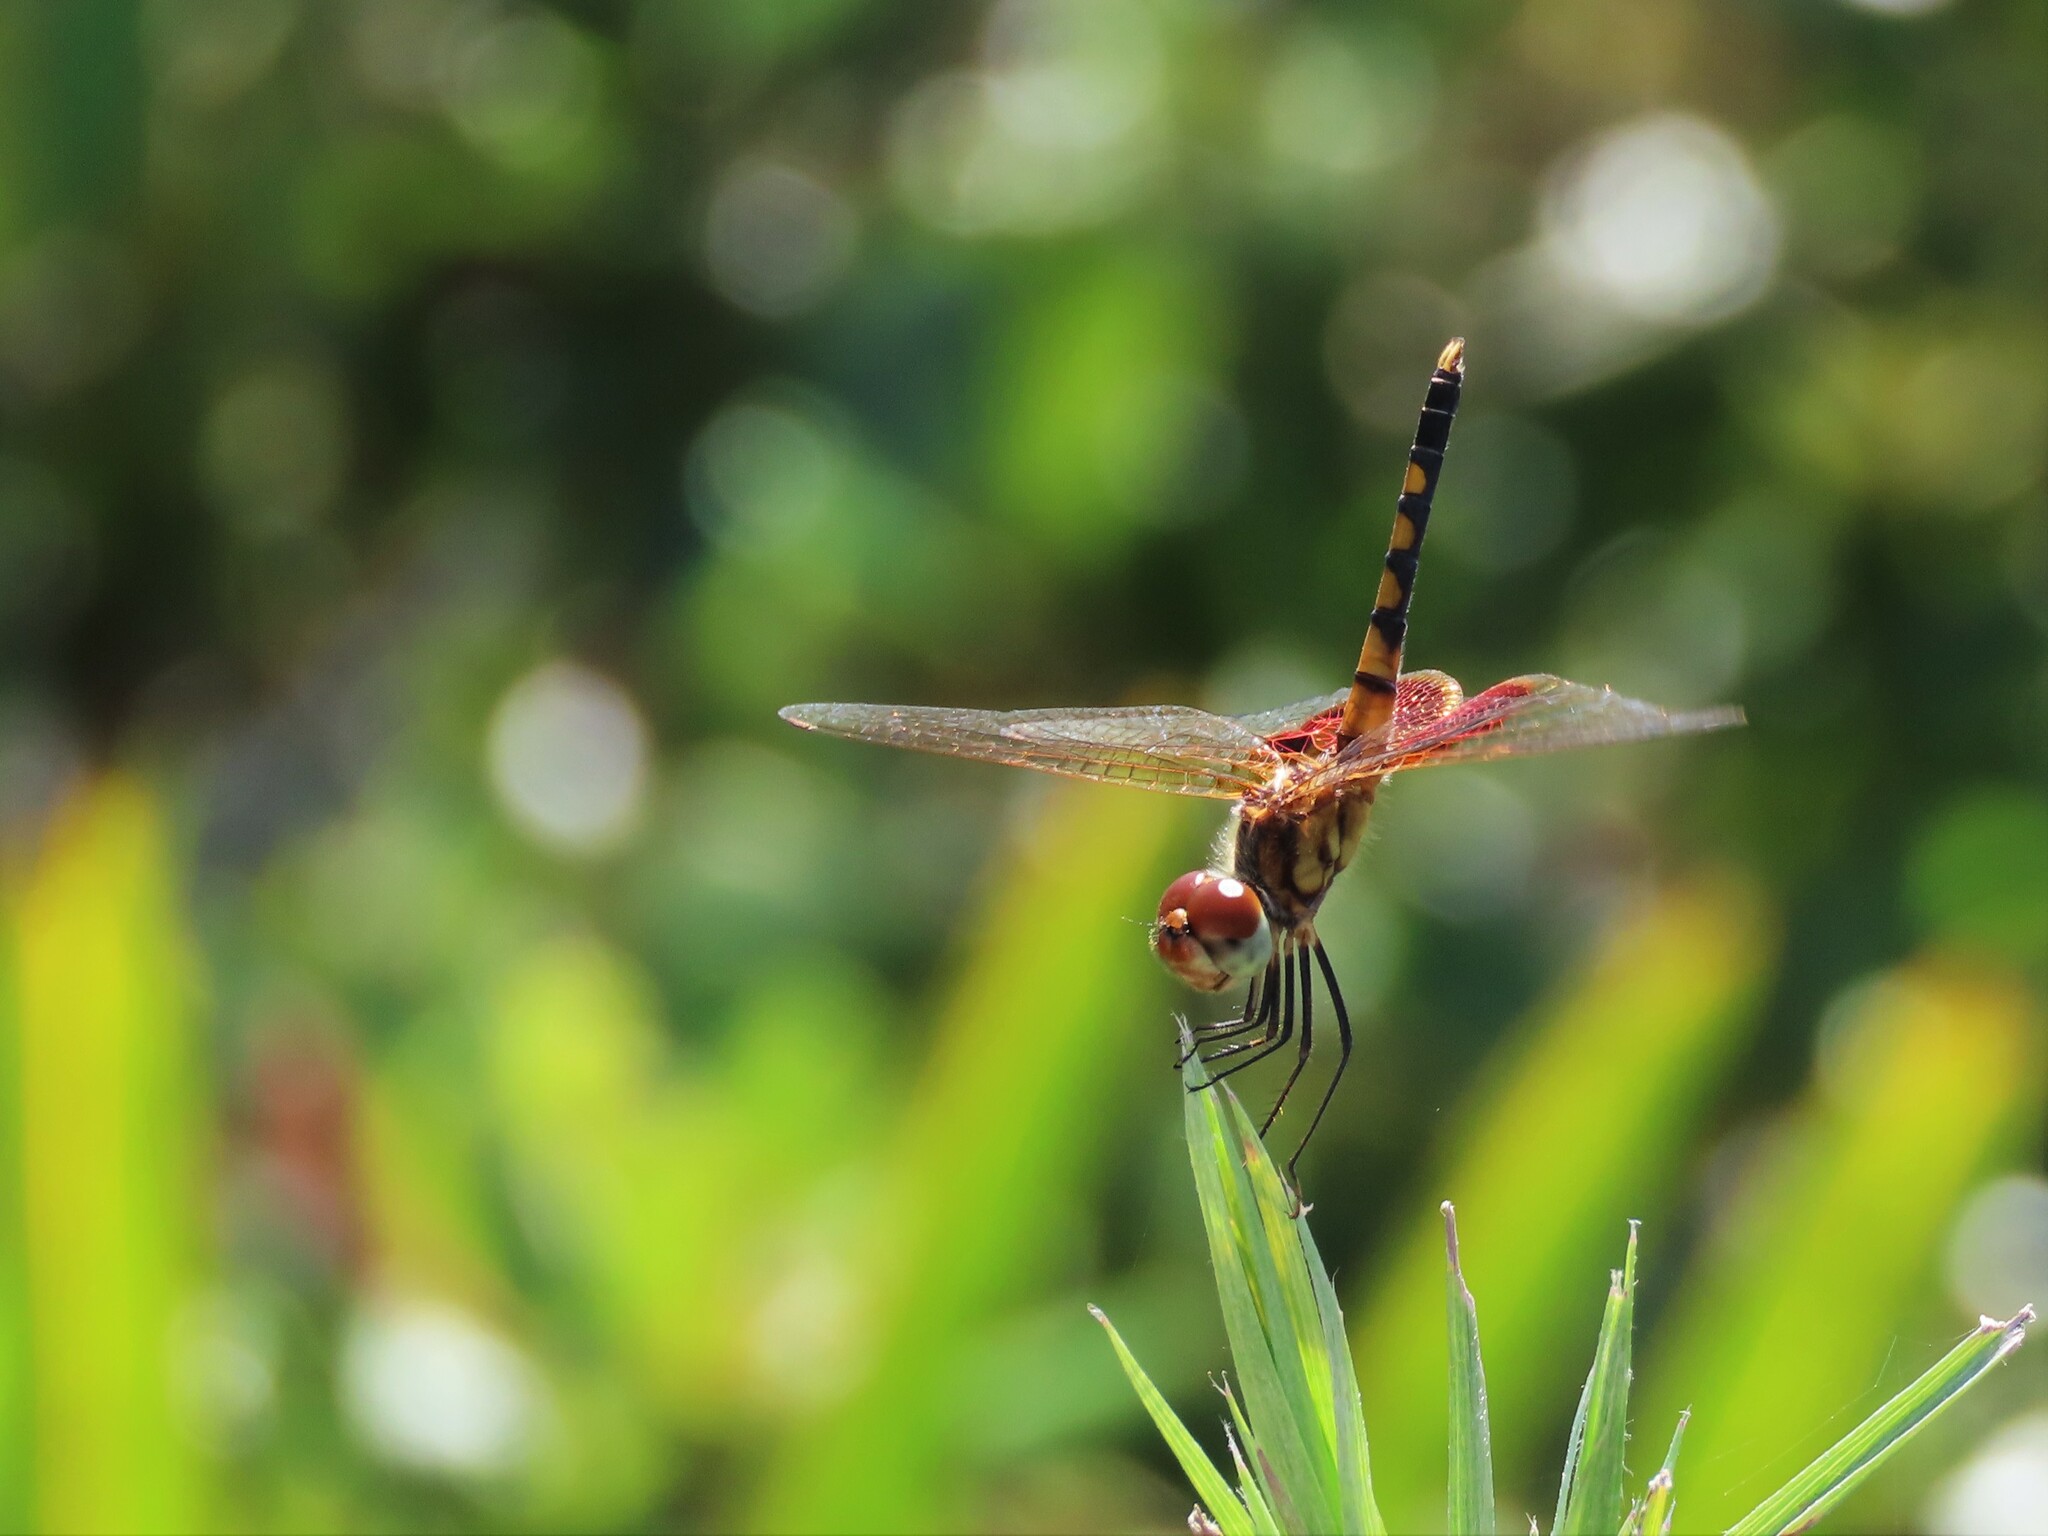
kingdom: Animalia
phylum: Arthropoda
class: Insecta
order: Odonata
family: Libellulidae
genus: Celithemis
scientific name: Celithemis amanda
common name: Amanda's pennant
